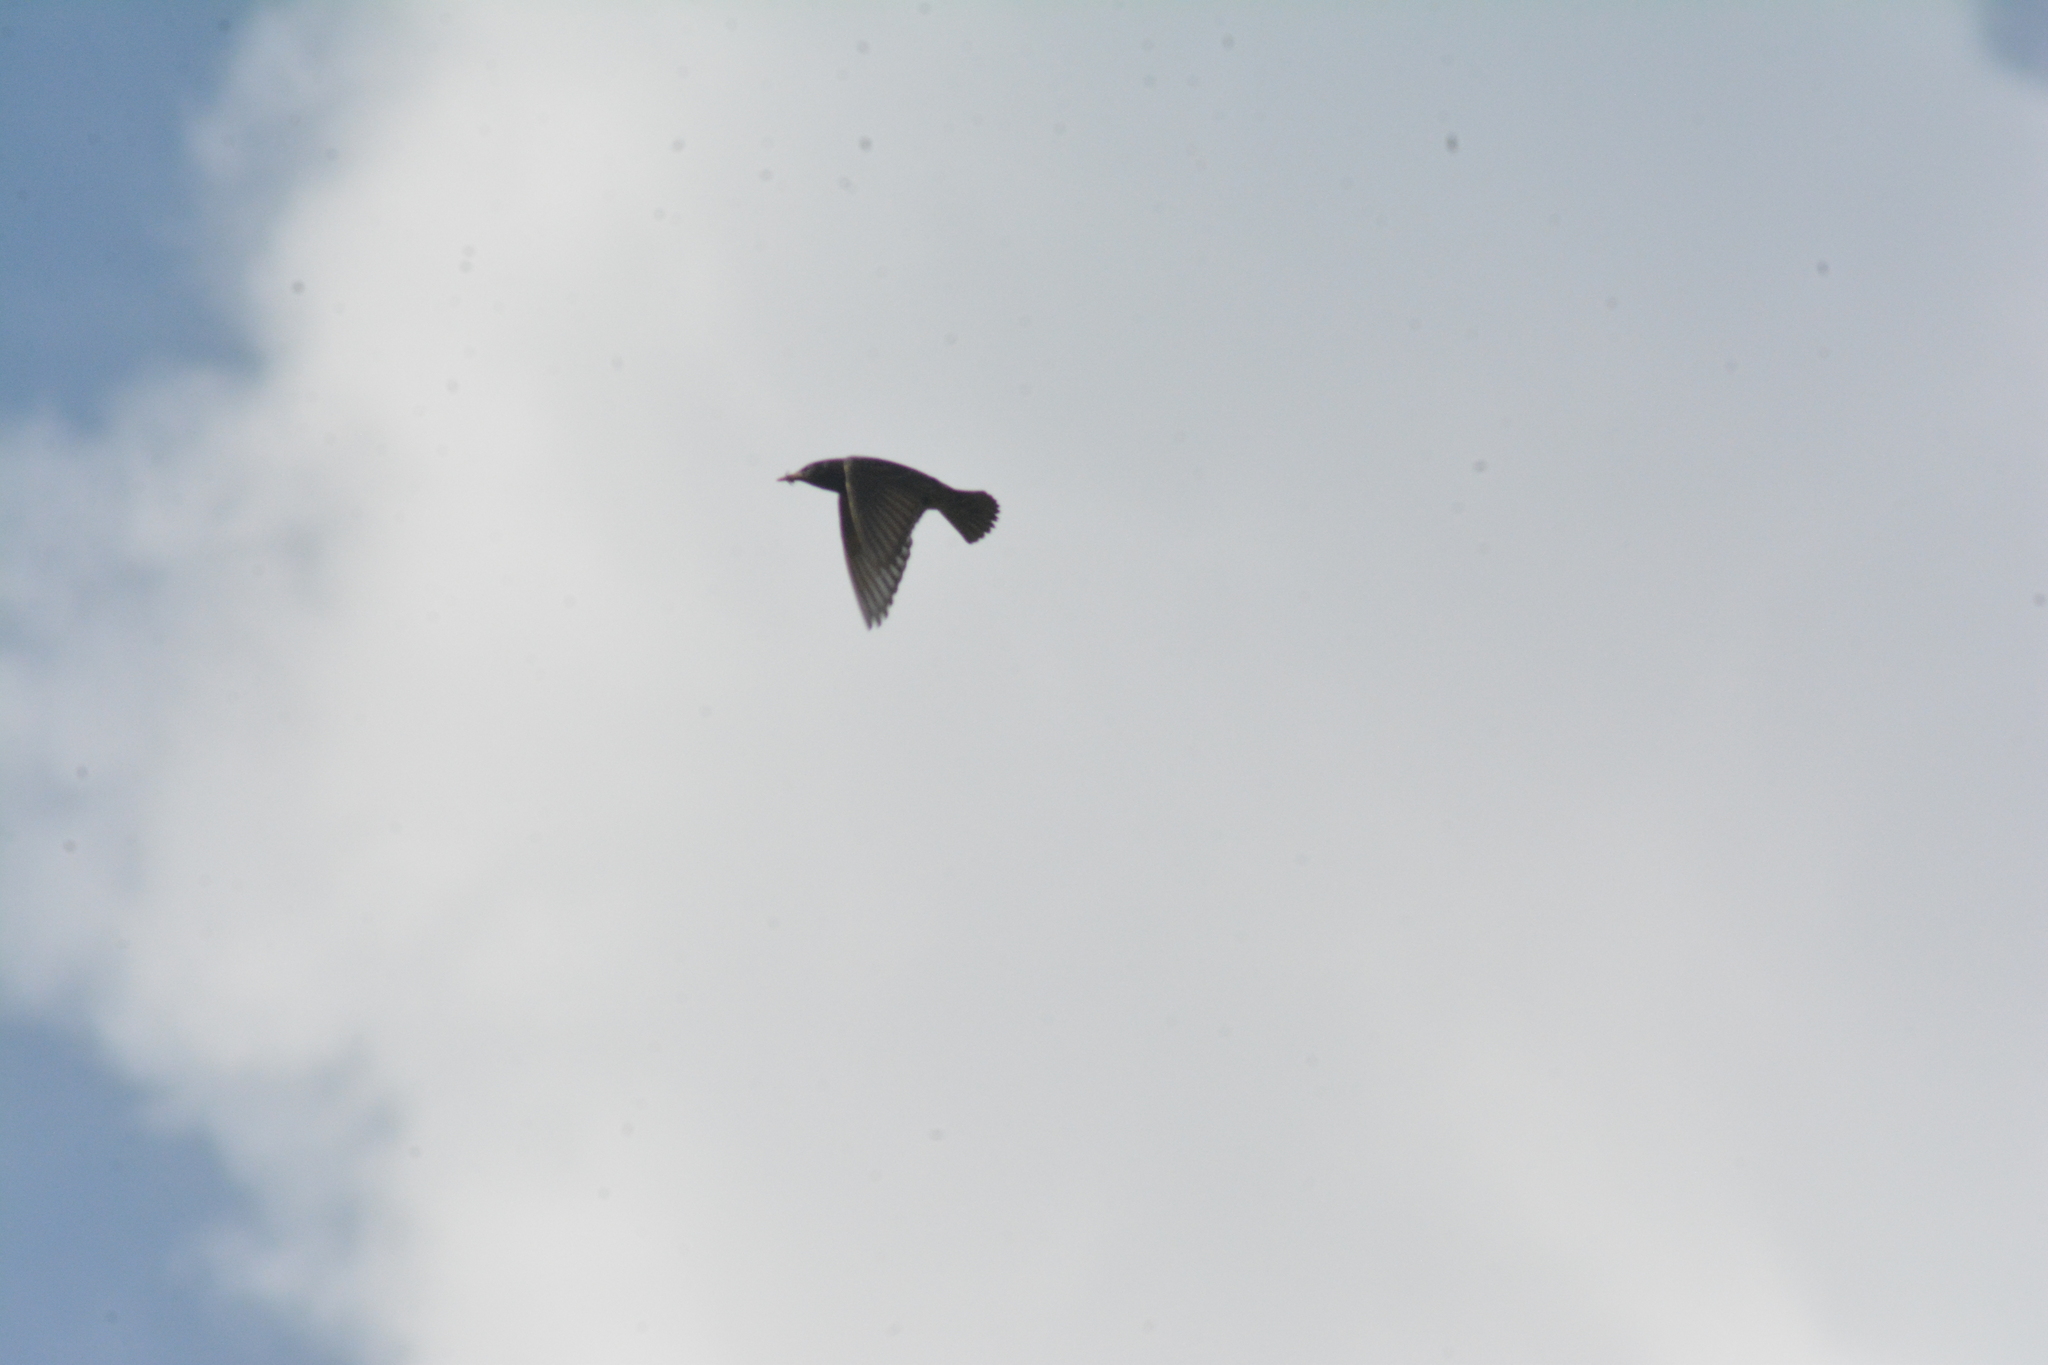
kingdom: Animalia
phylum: Chordata
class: Aves
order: Passeriformes
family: Sturnidae
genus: Sturnus
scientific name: Sturnus vulgaris
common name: Common starling
